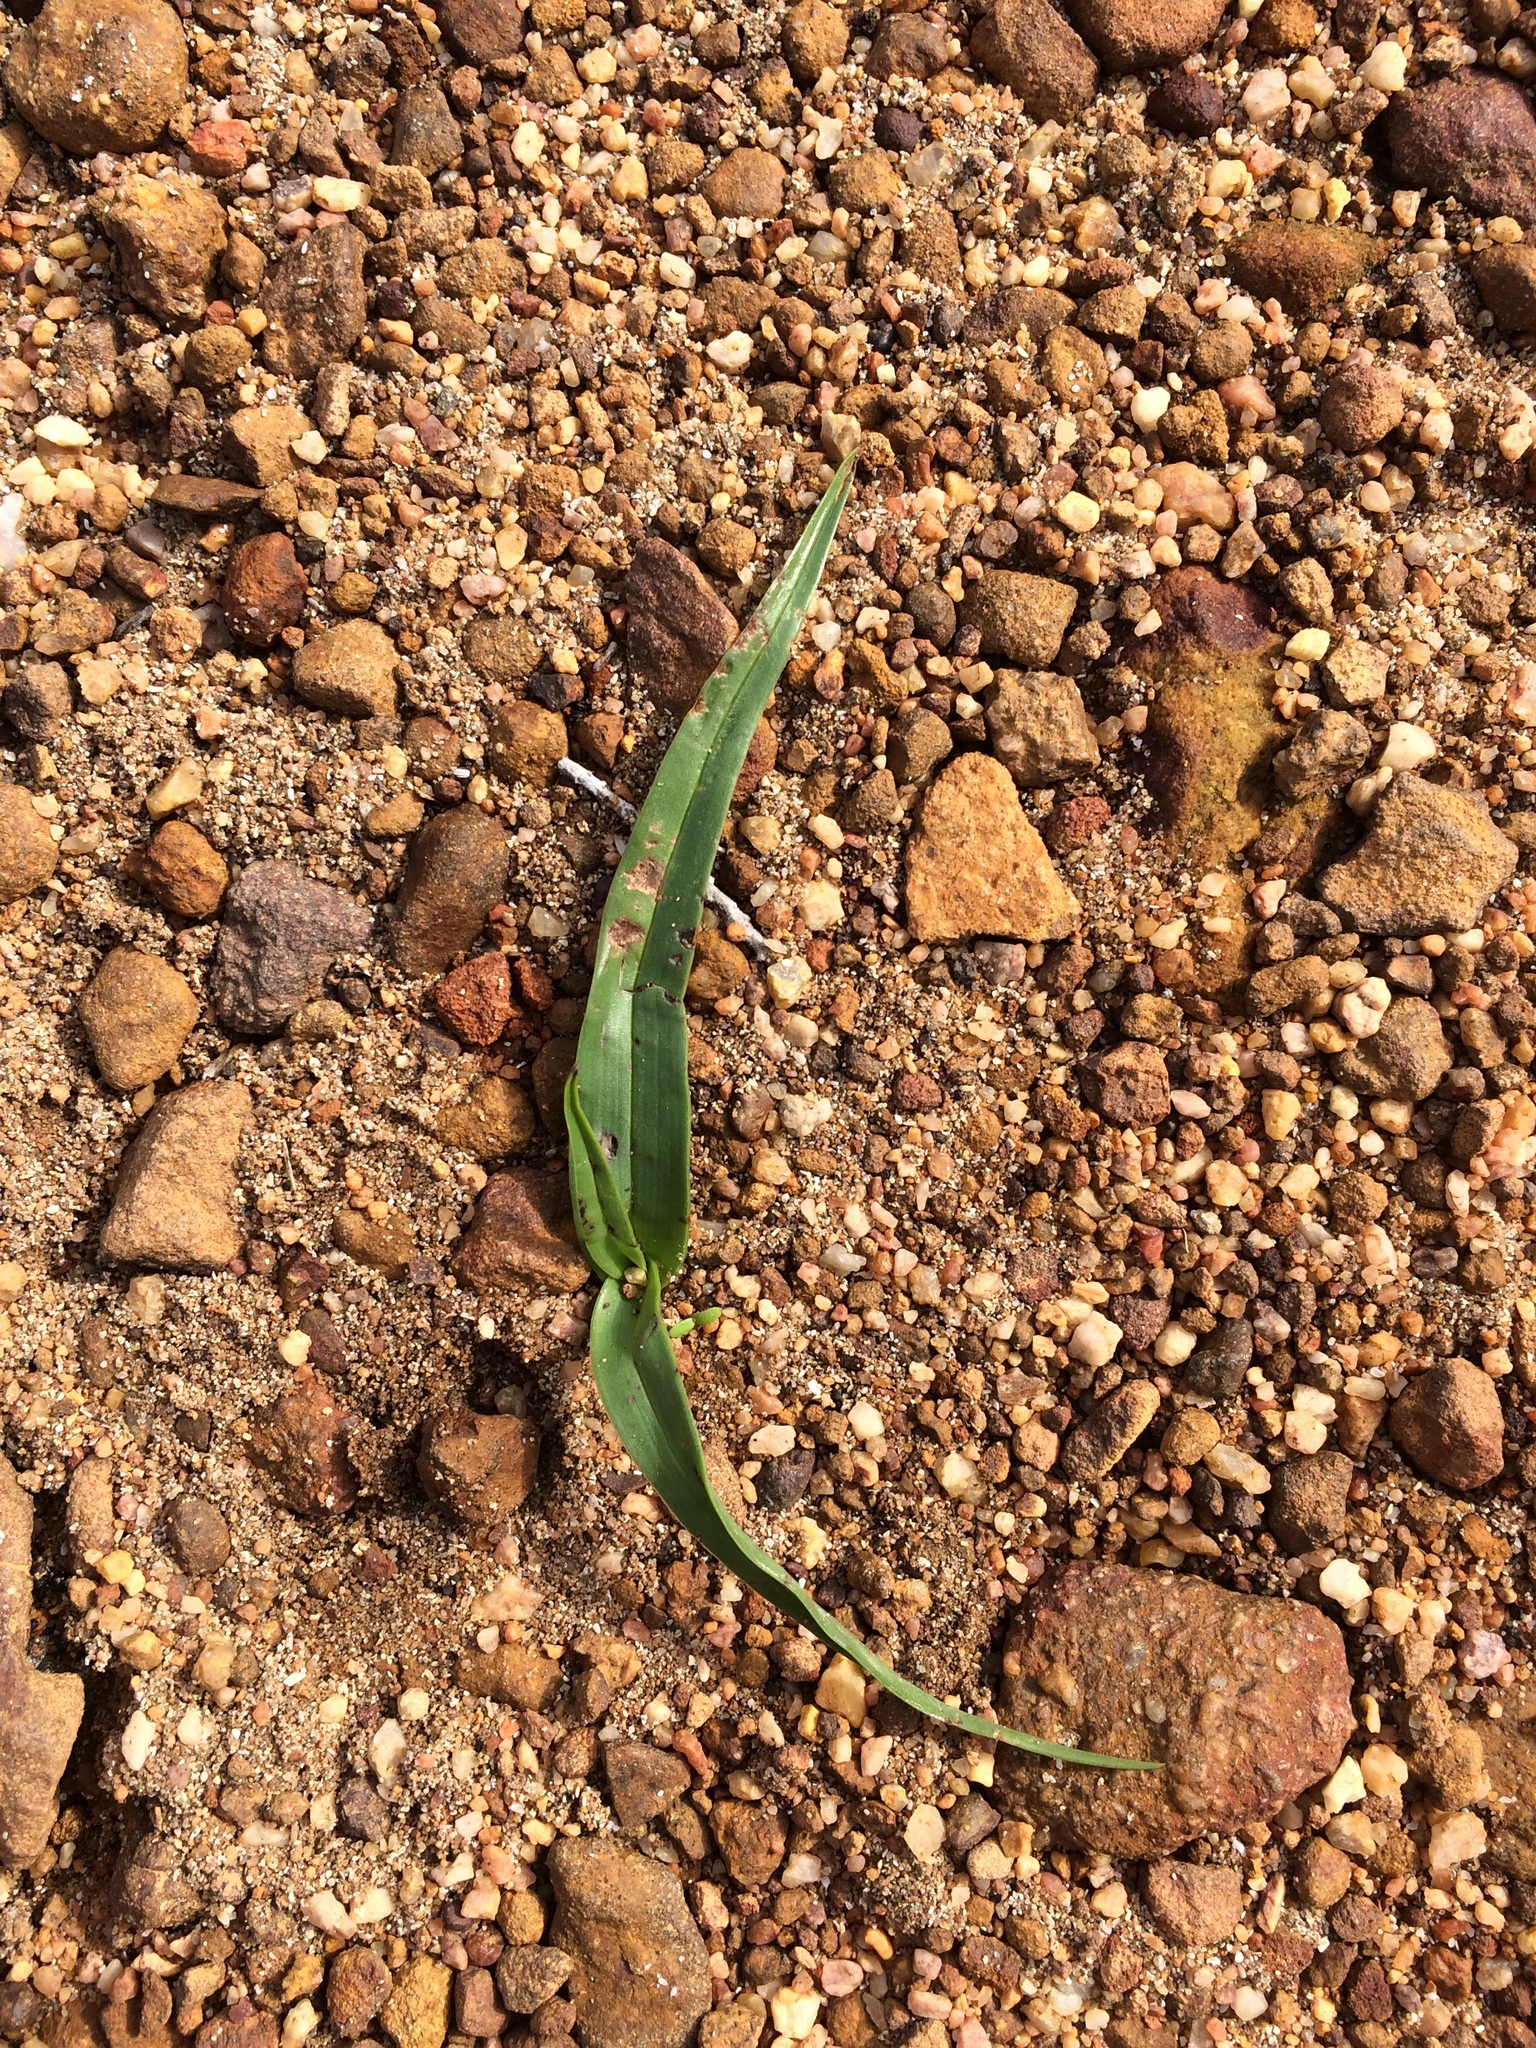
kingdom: Plantae
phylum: Tracheophyta
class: Liliopsida
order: Liliales
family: Colchicaceae
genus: Colchicum
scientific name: Colchicum eucomoides
